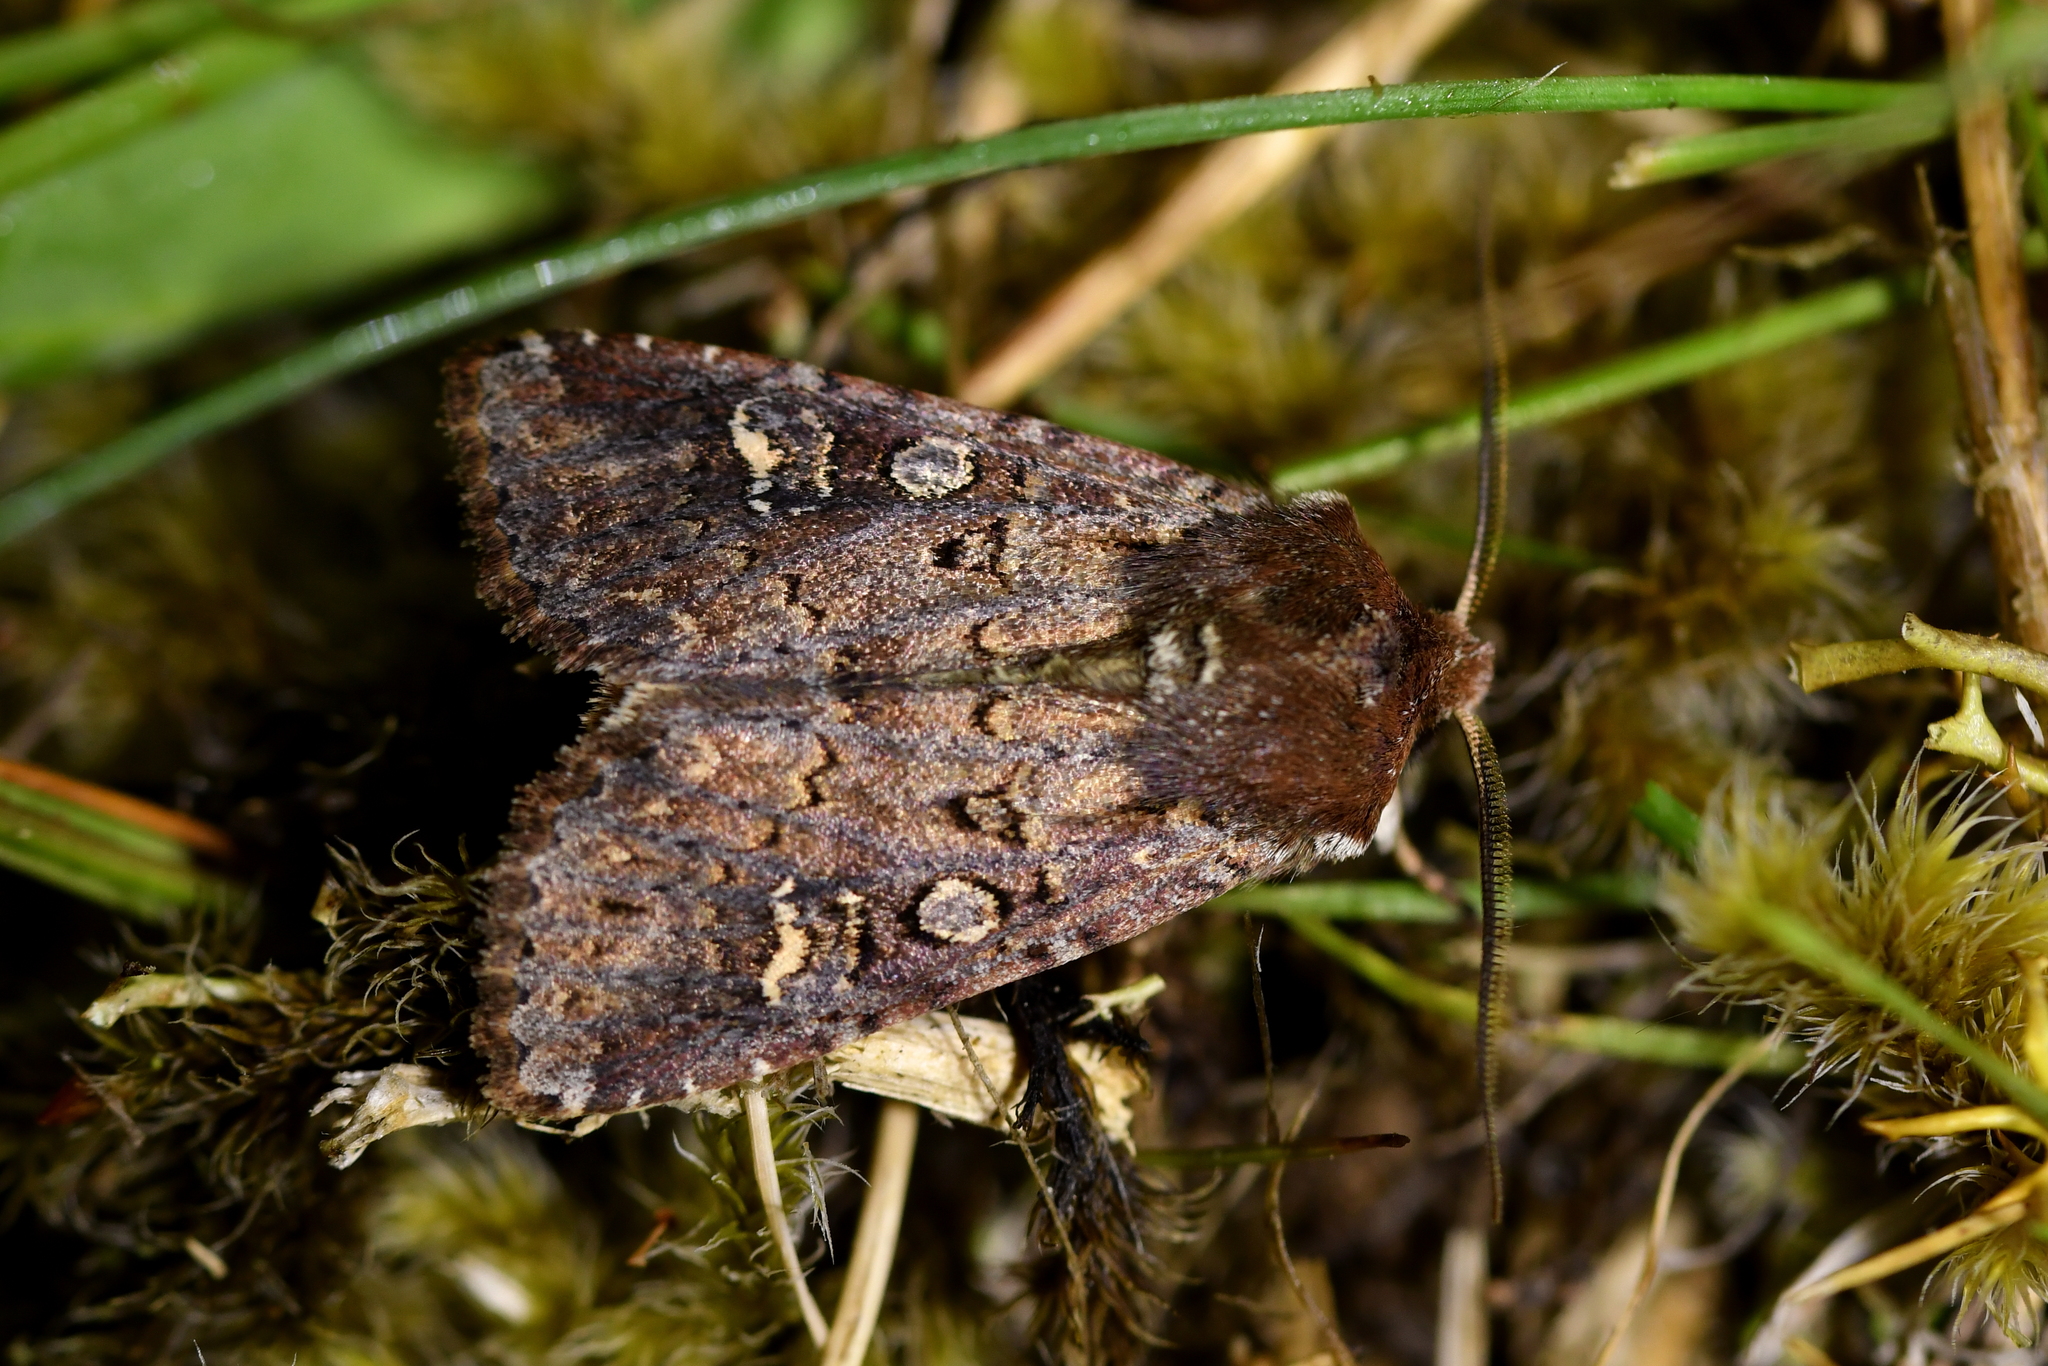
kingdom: Animalia
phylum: Arthropoda
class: Insecta
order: Lepidoptera
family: Noctuidae
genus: Ichneutica
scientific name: Ichneutica agorastis
